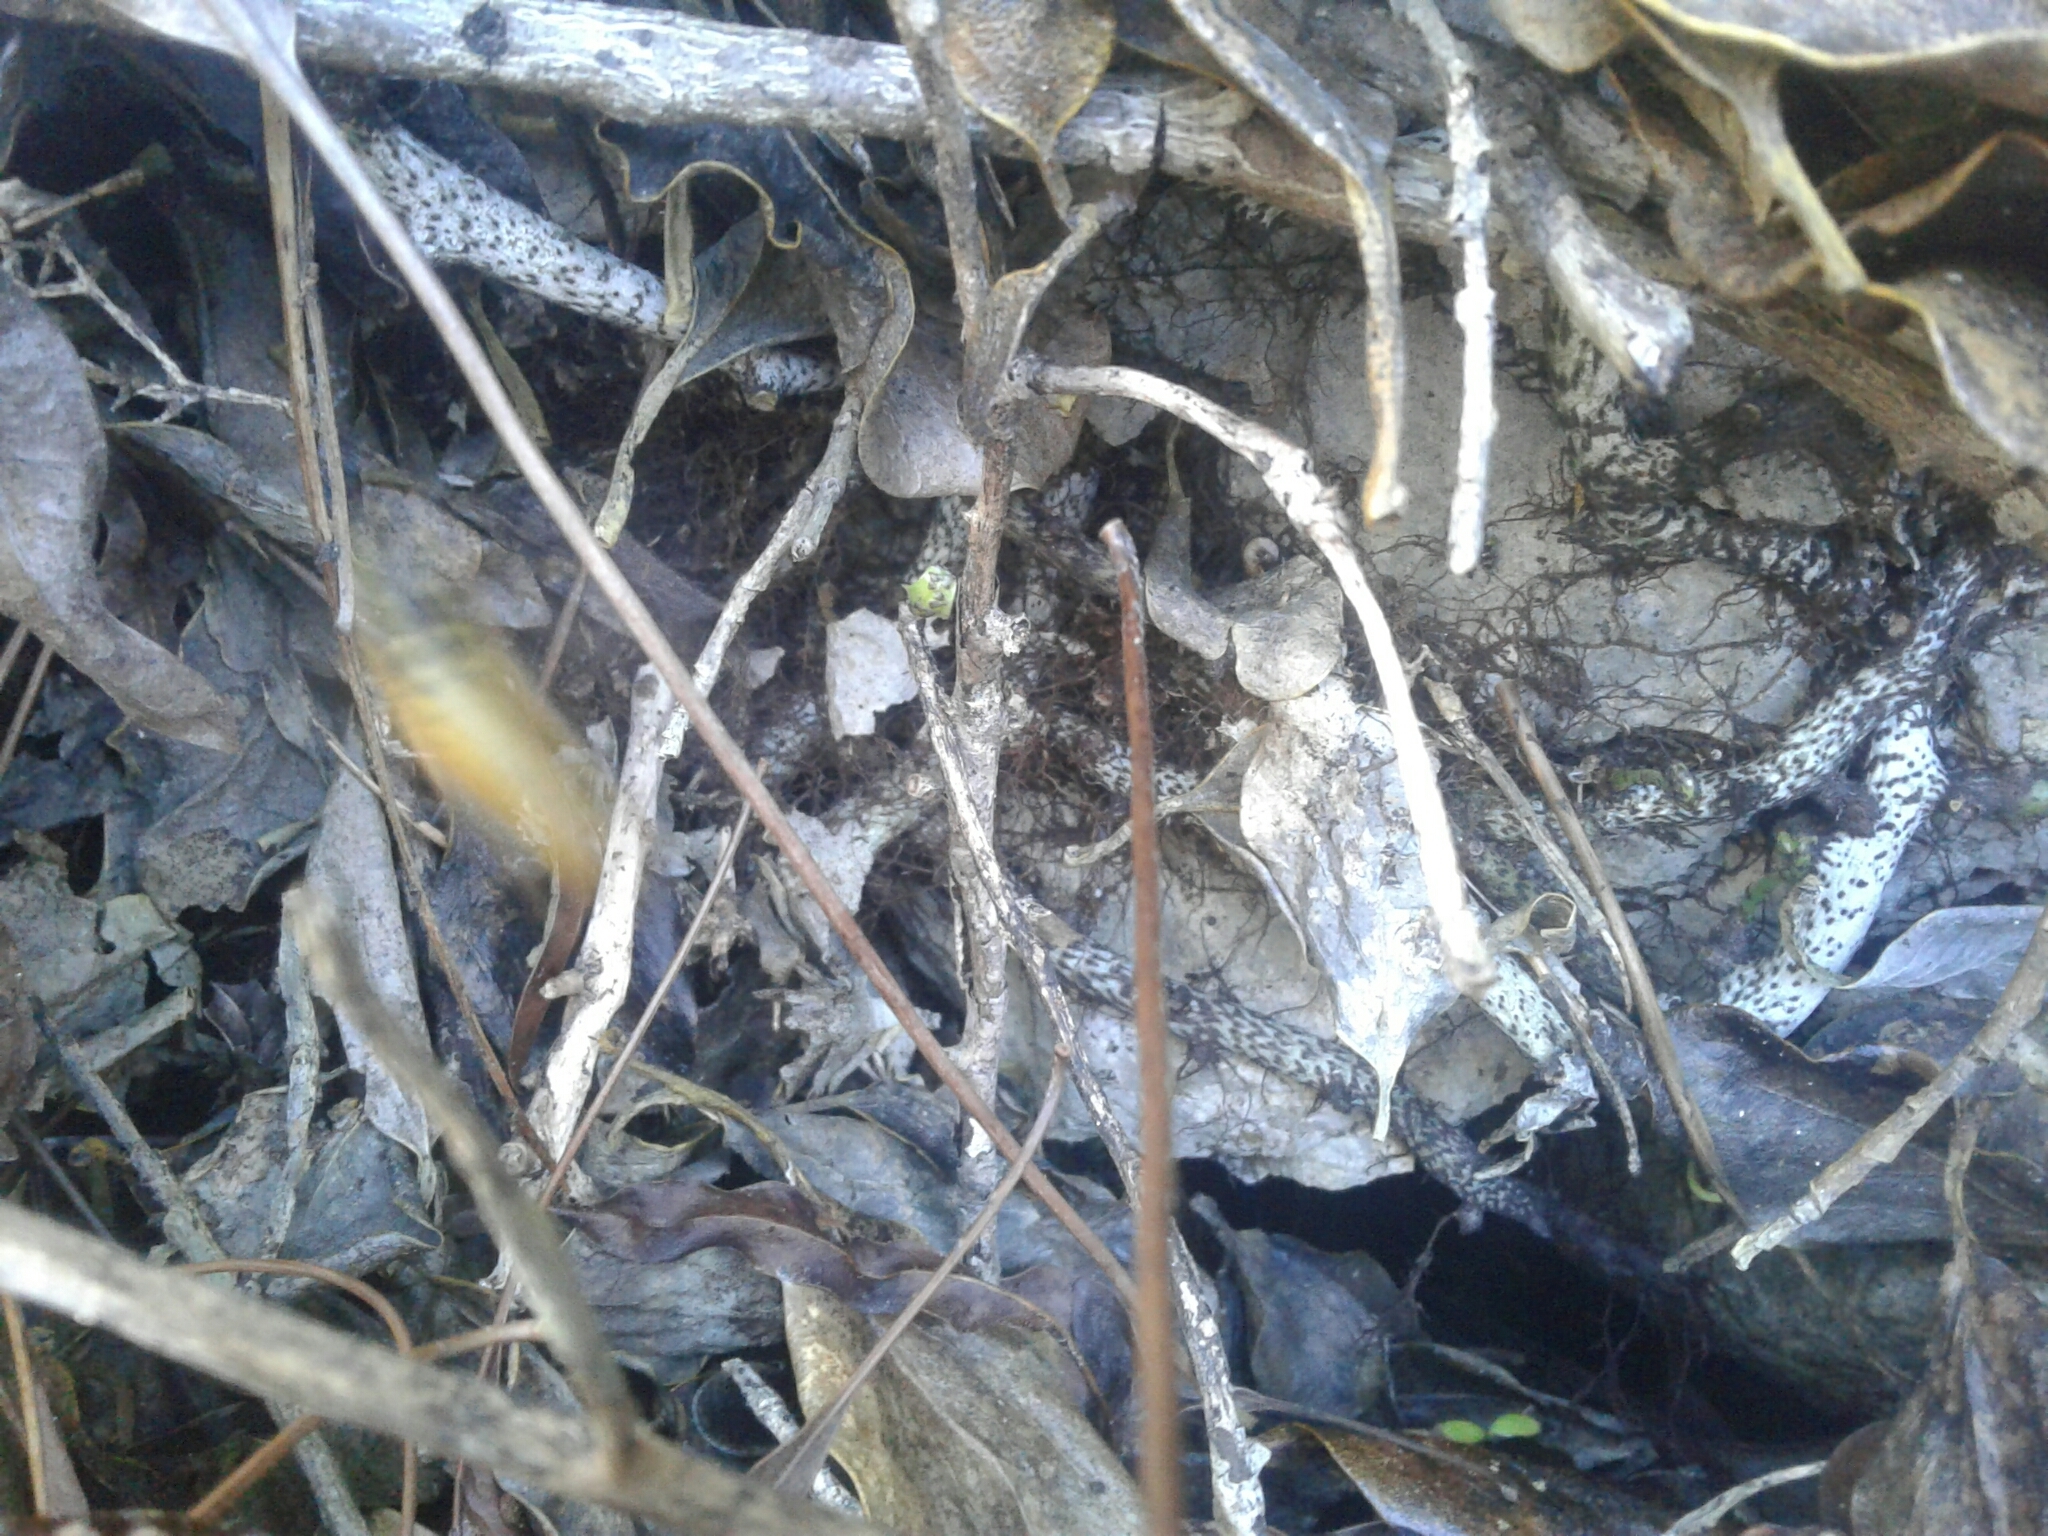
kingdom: Animalia
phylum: Arthropoda
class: Insecta
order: Hymenoptera
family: Vespidae
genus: Vespula
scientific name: Vespula
